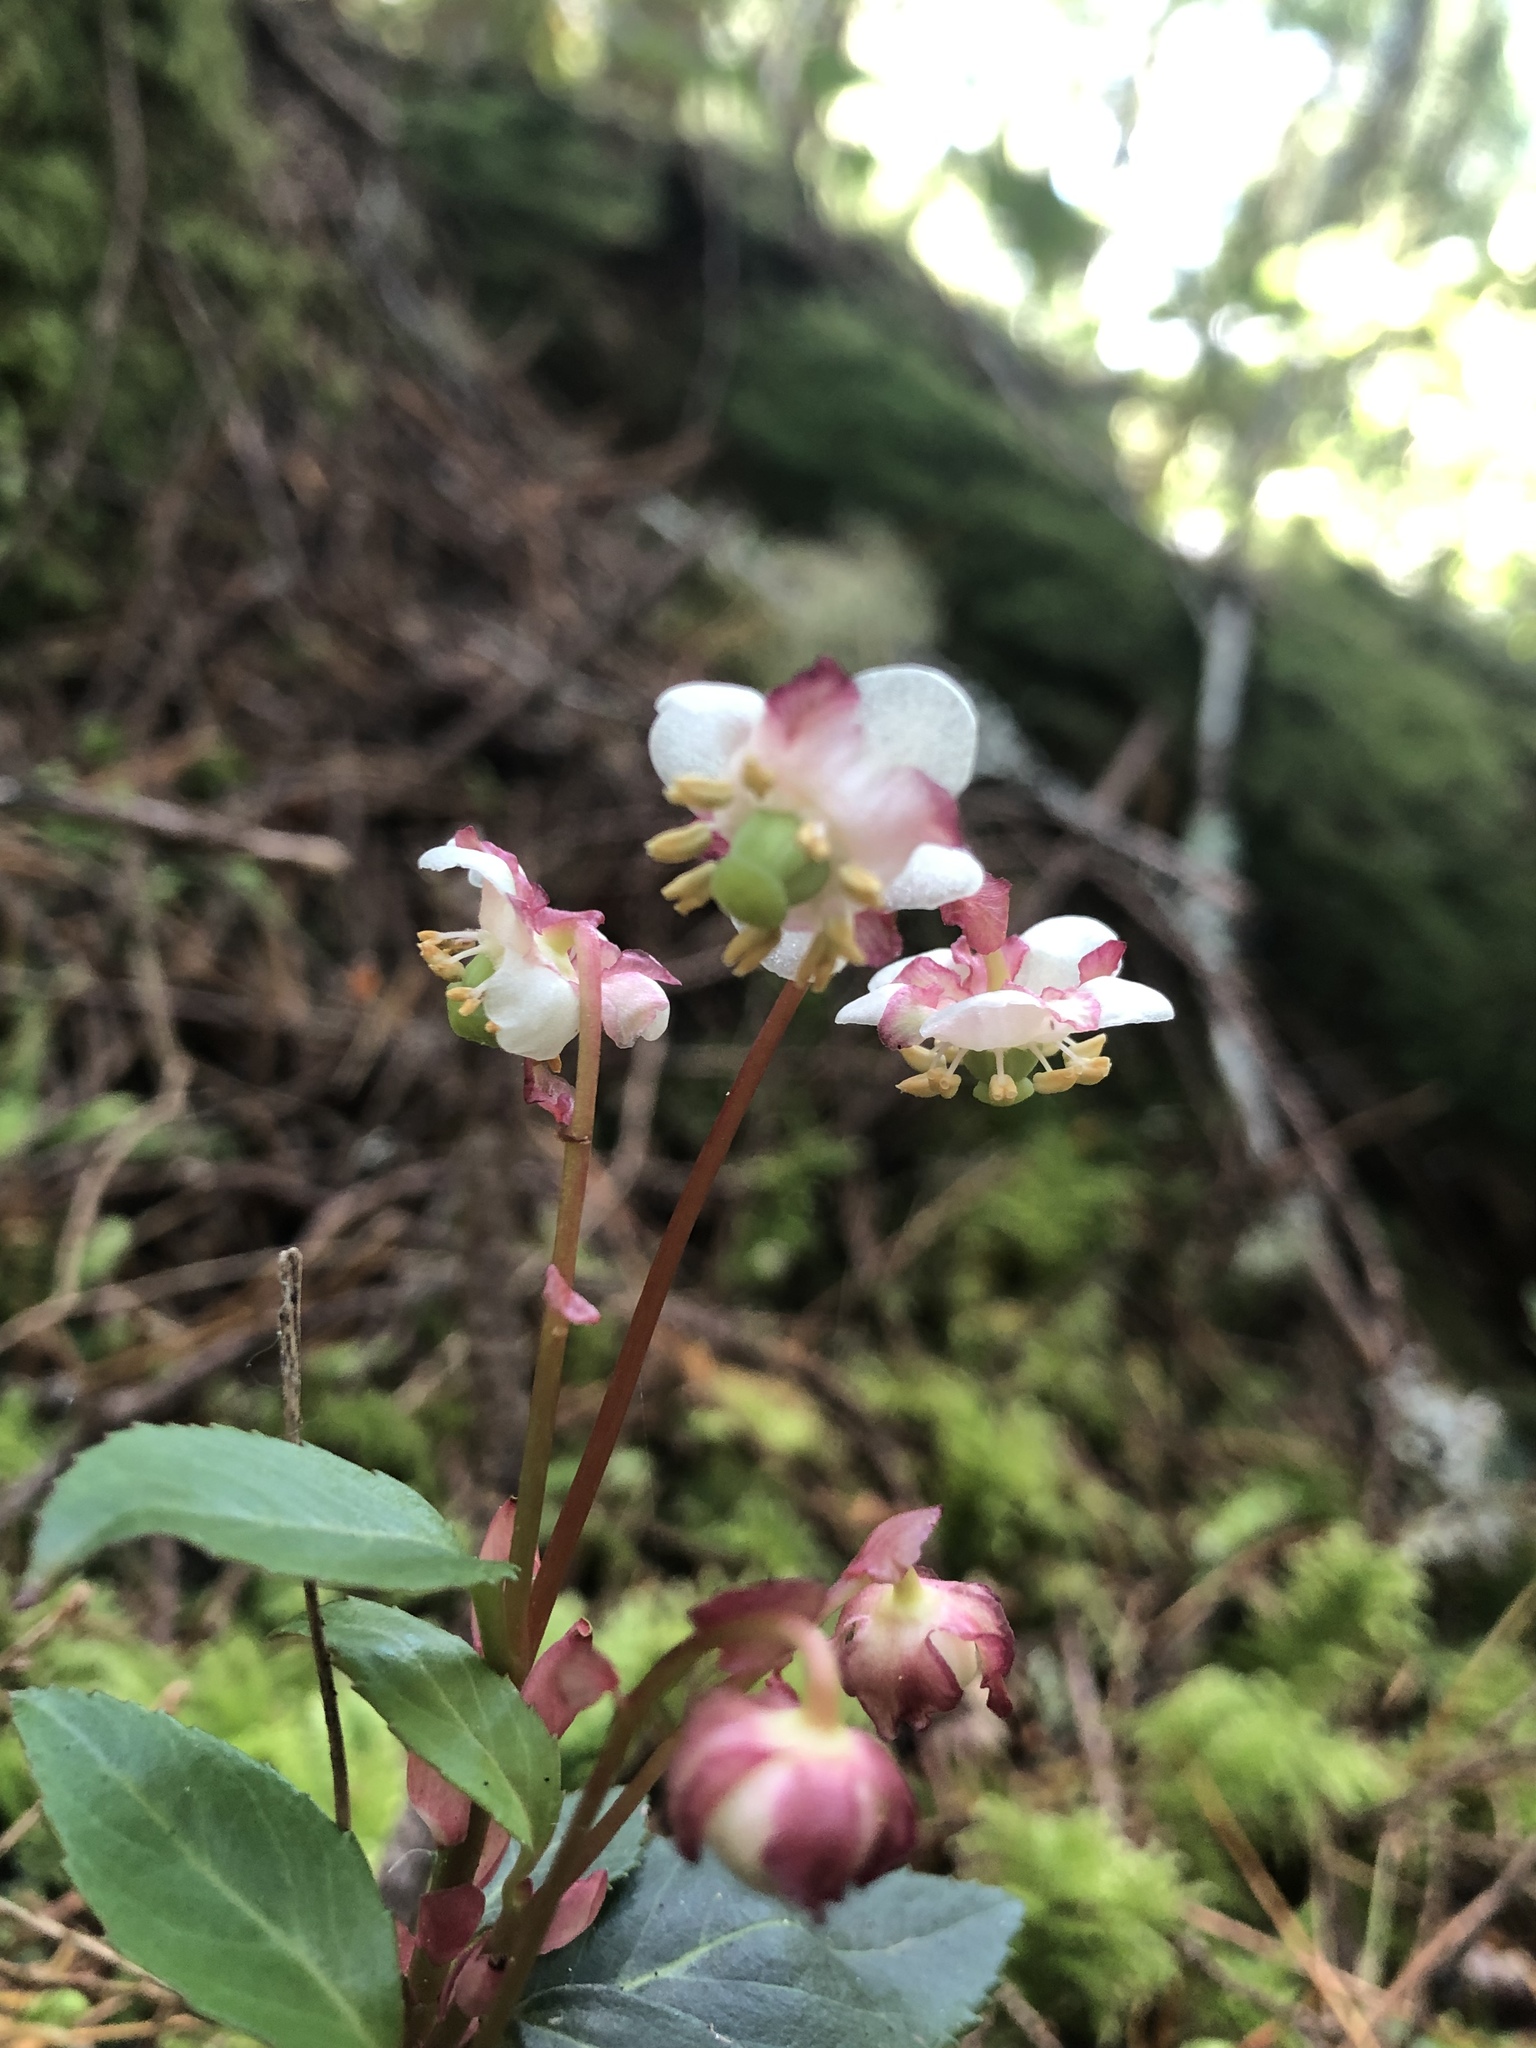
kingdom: Plantae
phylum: Tracheophyta
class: Magnoliopsida
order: Ericales
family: Ericaceae
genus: Chimaphila
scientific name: Chimaphila menziesii
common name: Menzies' pipsissewa
